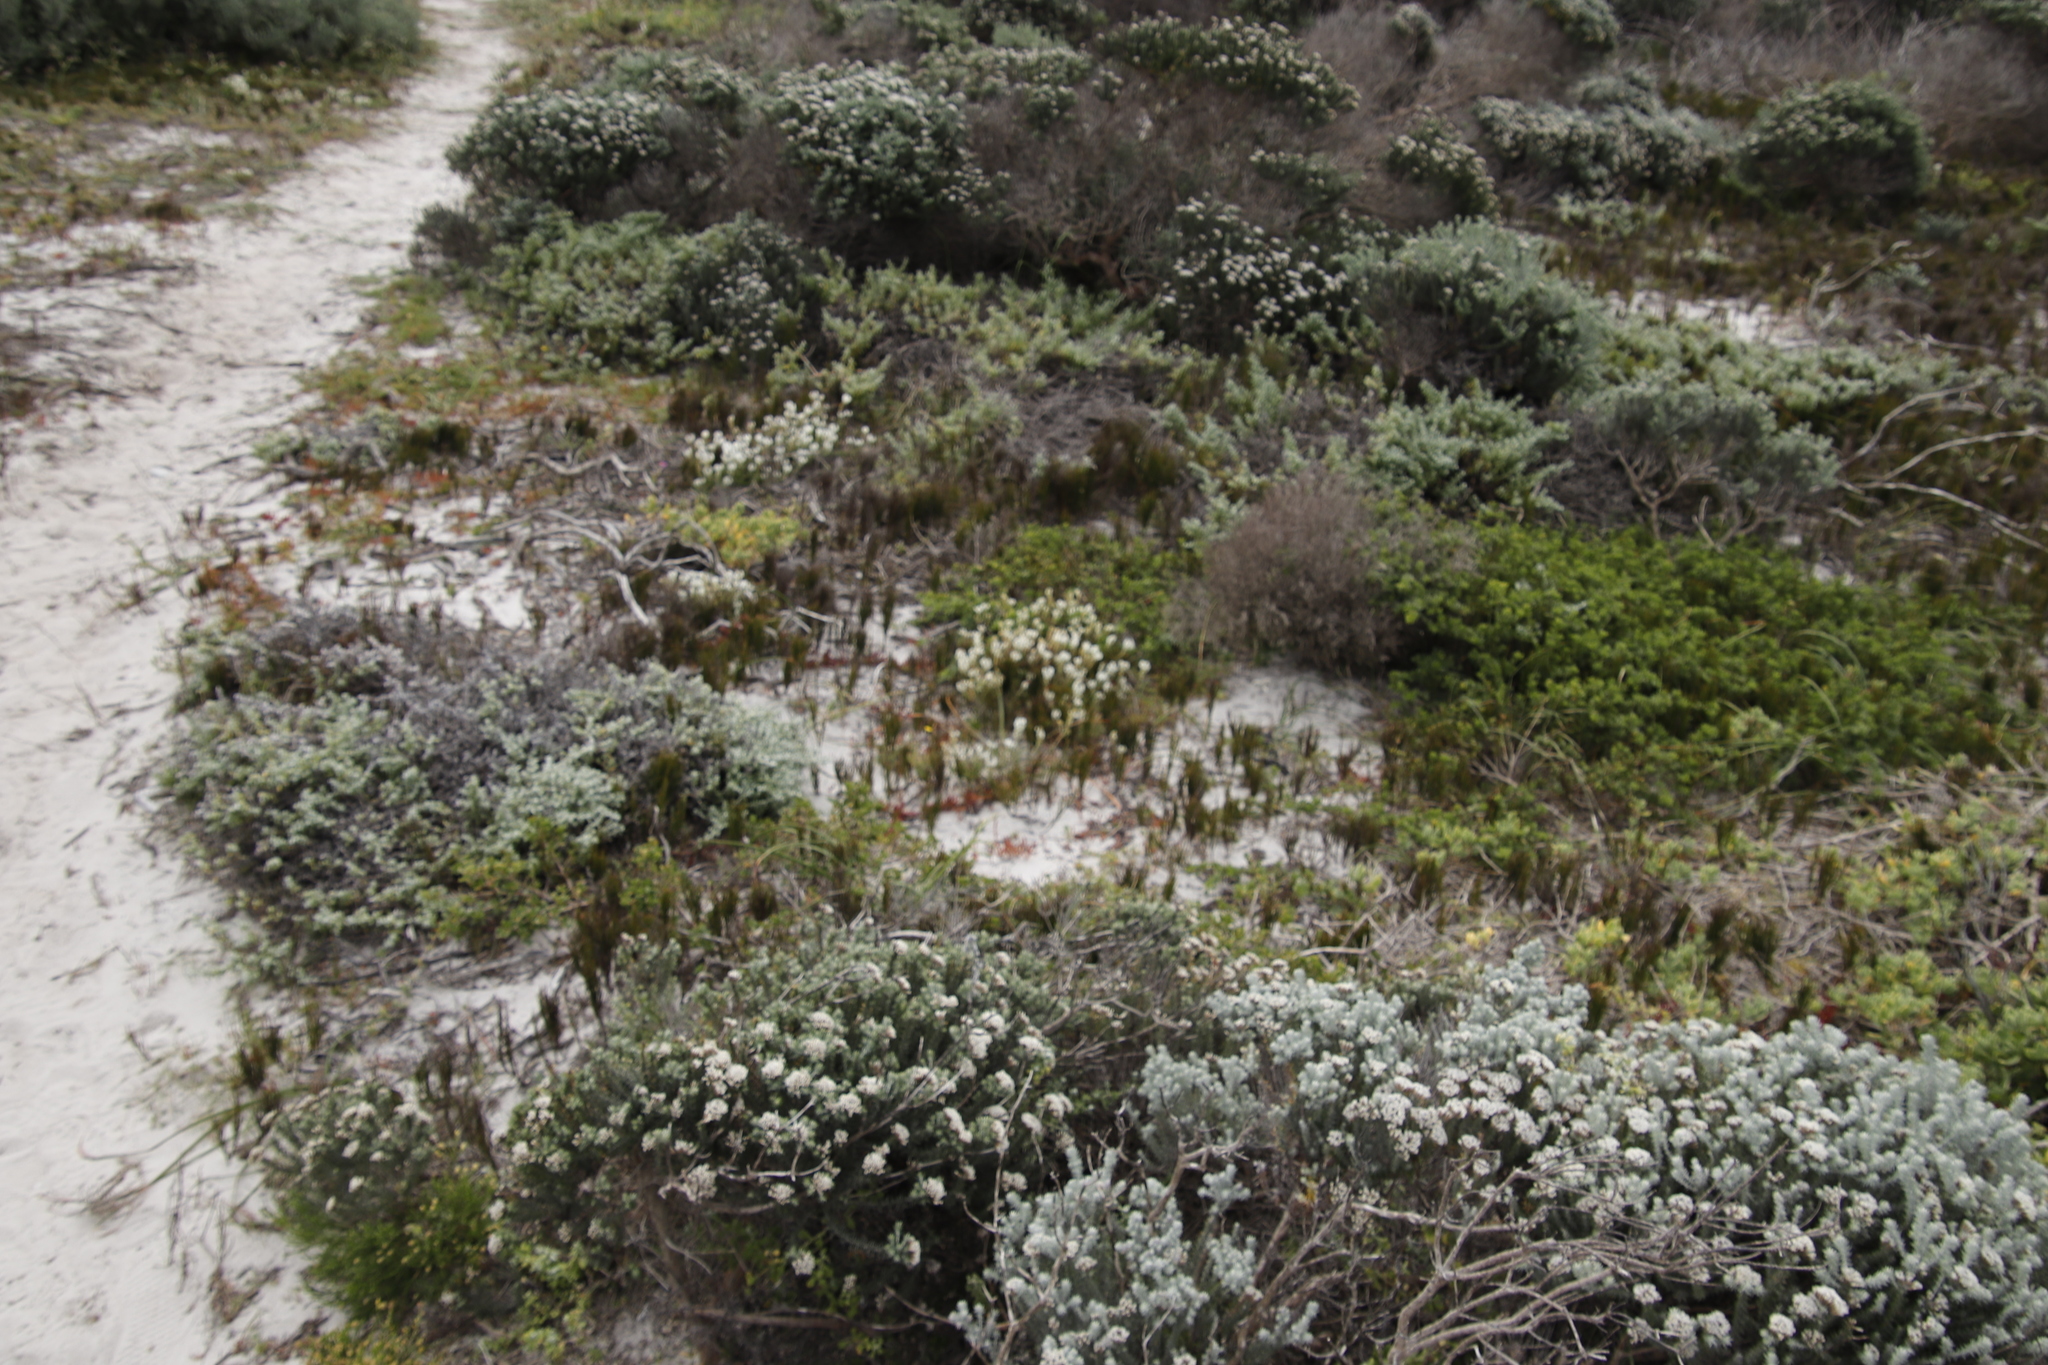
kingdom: Plantae
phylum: Tracheophyta
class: Magnoliopsida
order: Lamiales
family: Scrophulariaceae
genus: Dischisma
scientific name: Dischisma ciliatum
